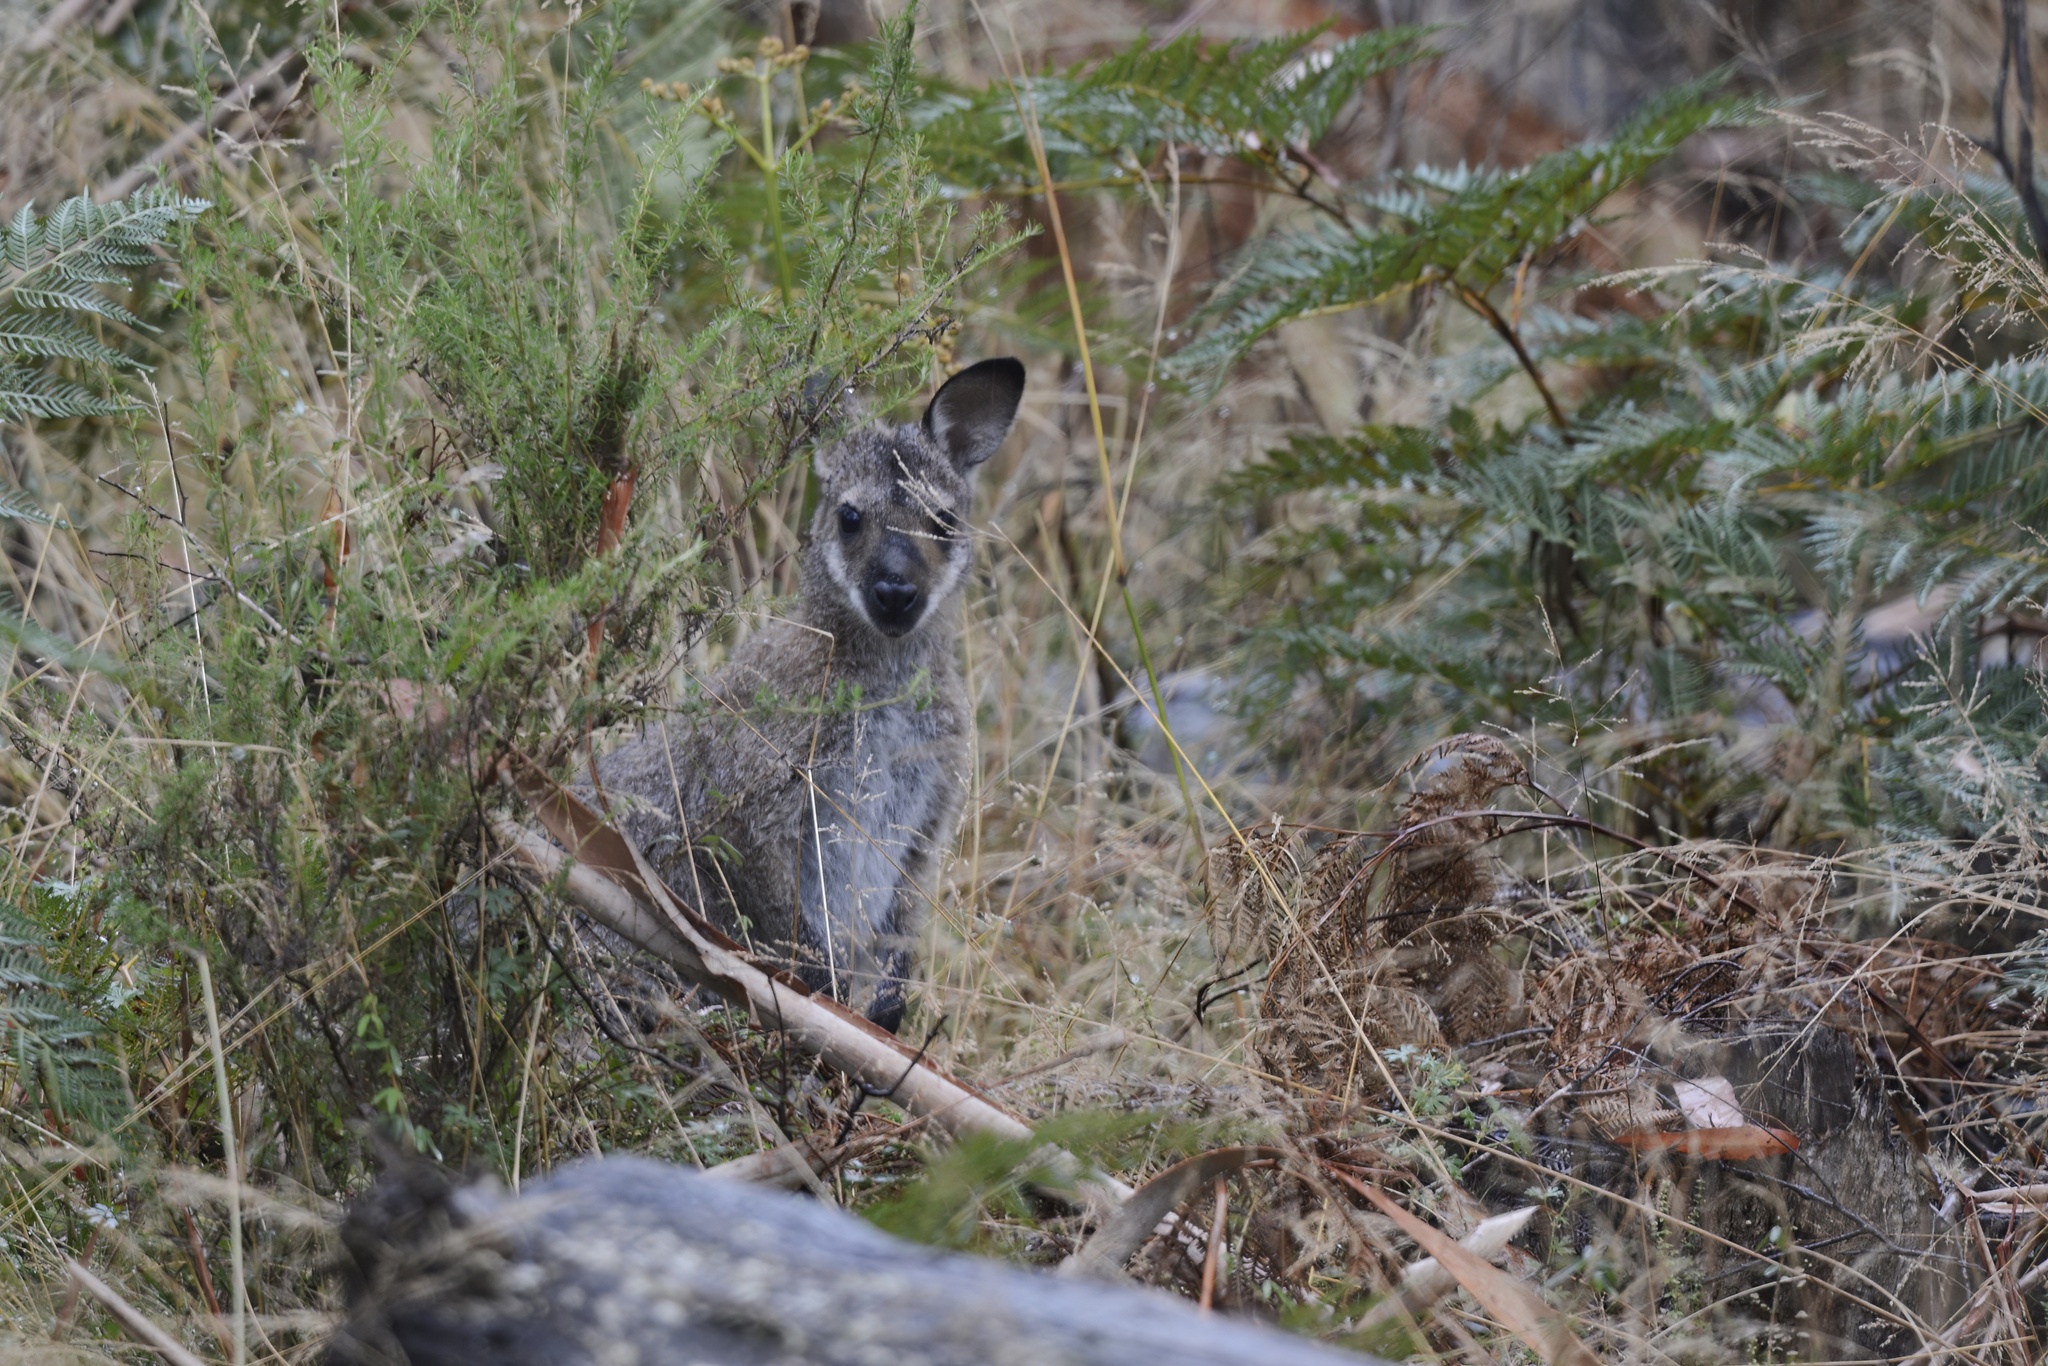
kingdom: Animalia
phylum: Chordata
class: Mammalia
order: Diprotodontia
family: Macropodidae
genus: Notamacropus
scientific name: Notamacropus rufogriseus
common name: Red-necked wallaby
